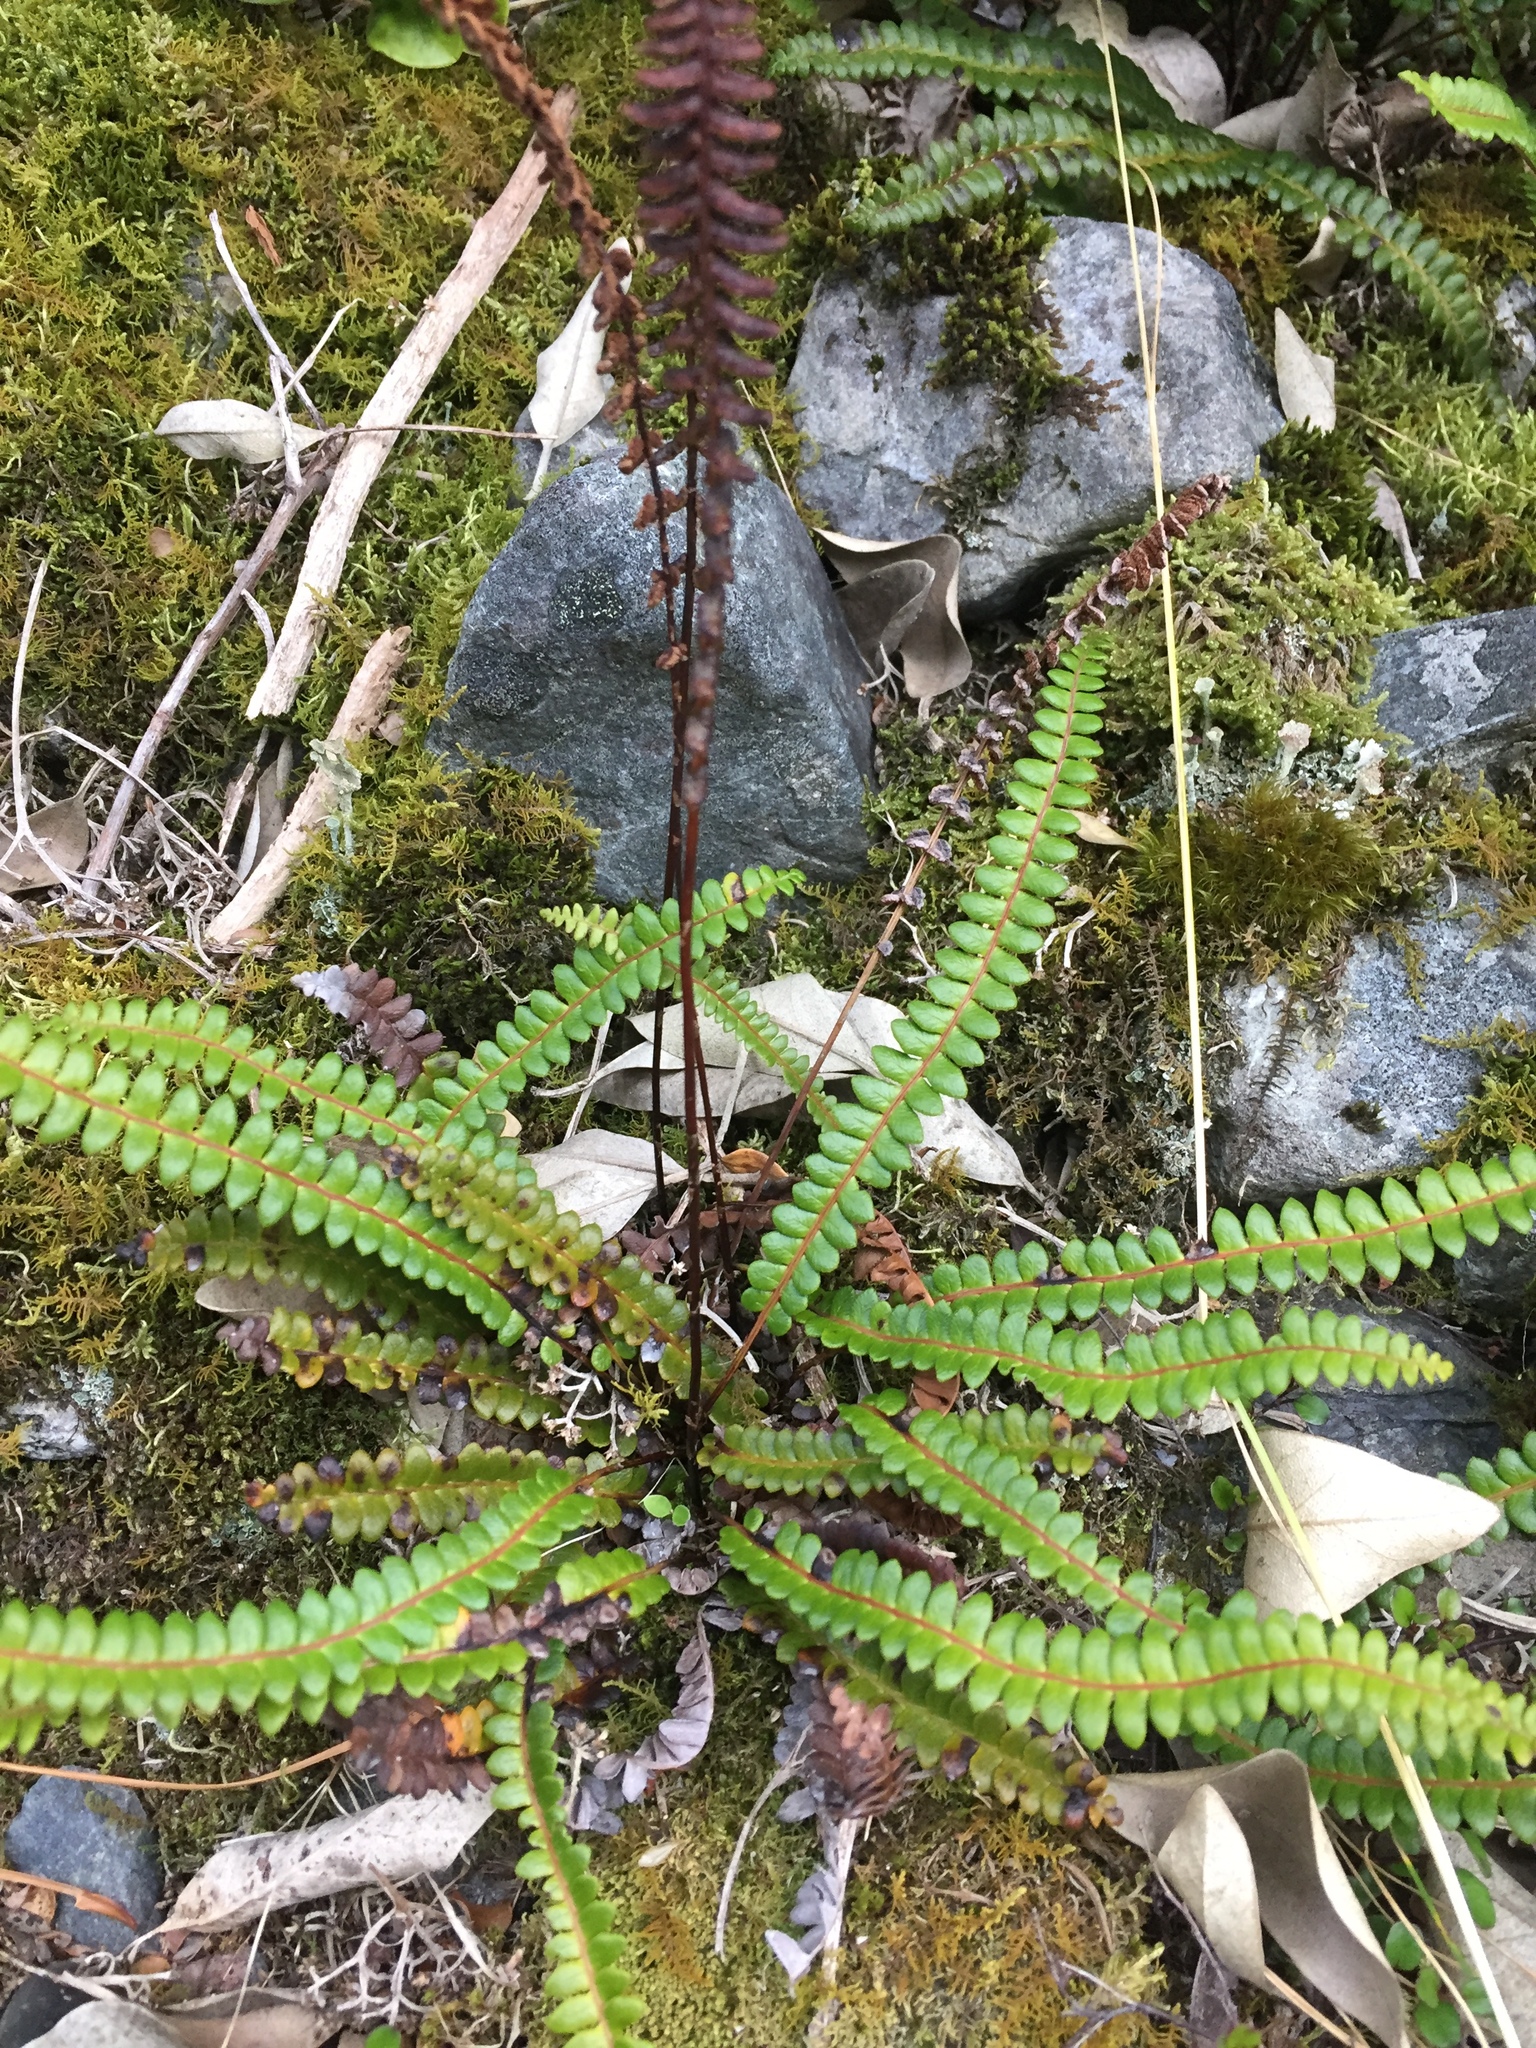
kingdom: Plantae
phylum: Tracheophyta
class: Polypodiopsida
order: Polypodiales
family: Blechnaceae
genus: Austroblechnum
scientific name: Austroblechnum penna-marina
